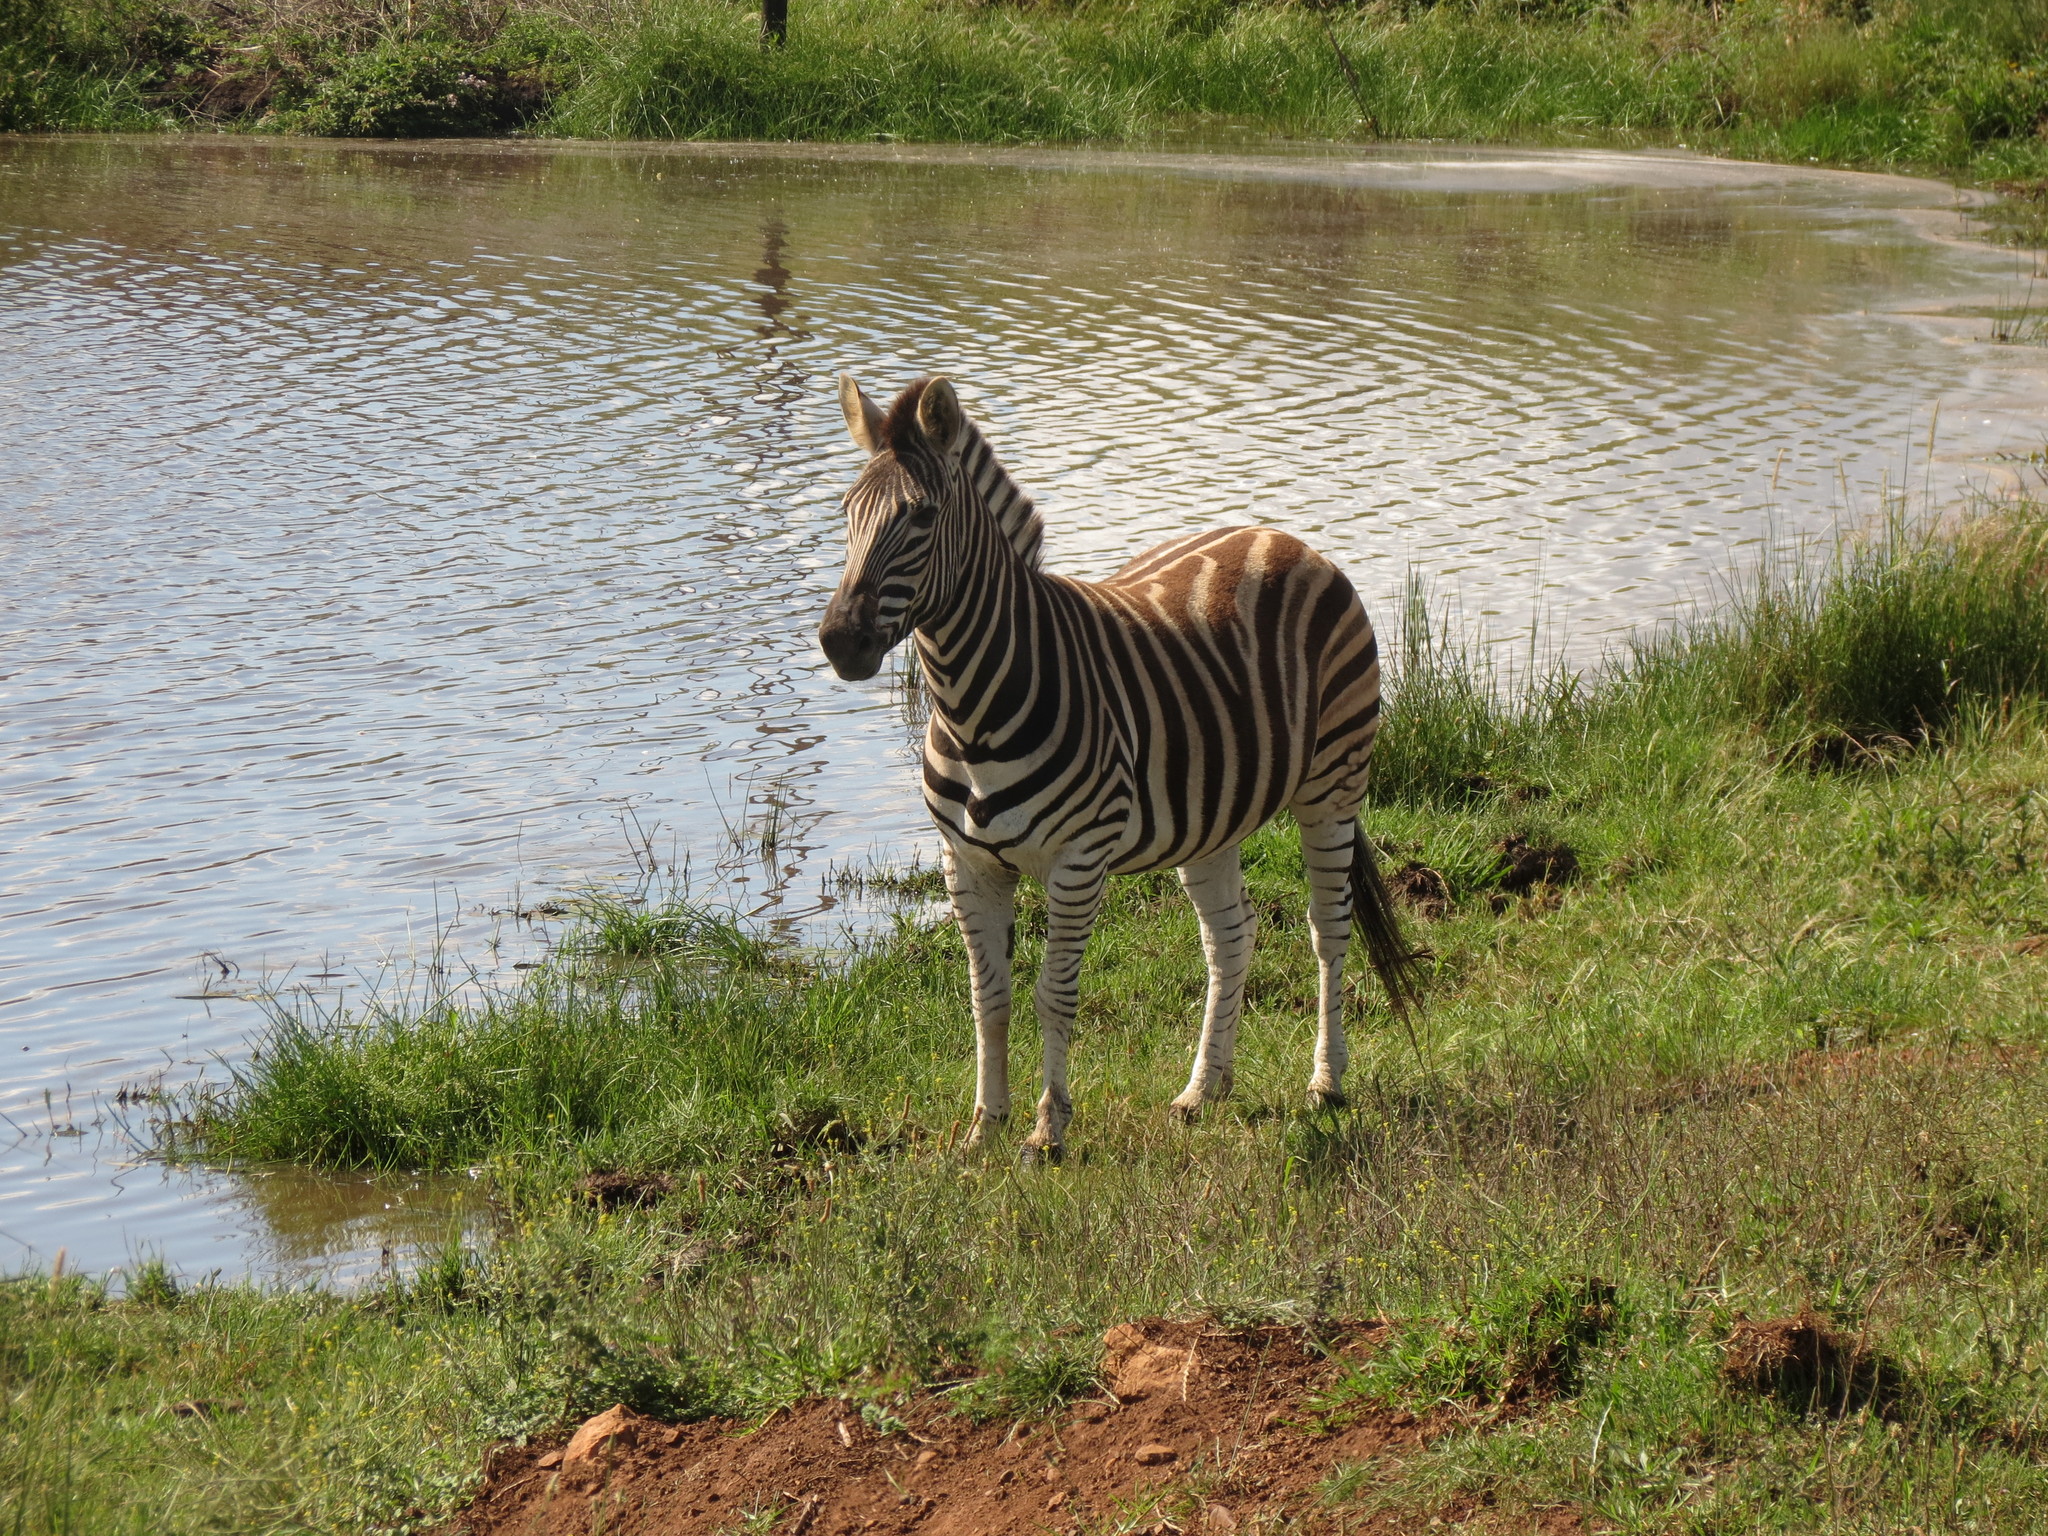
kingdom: Animalia
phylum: Chordata
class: Mammalia
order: Perissodactyla
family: Equidae
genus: Equus
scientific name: Equus quagga
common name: Plains zebra
